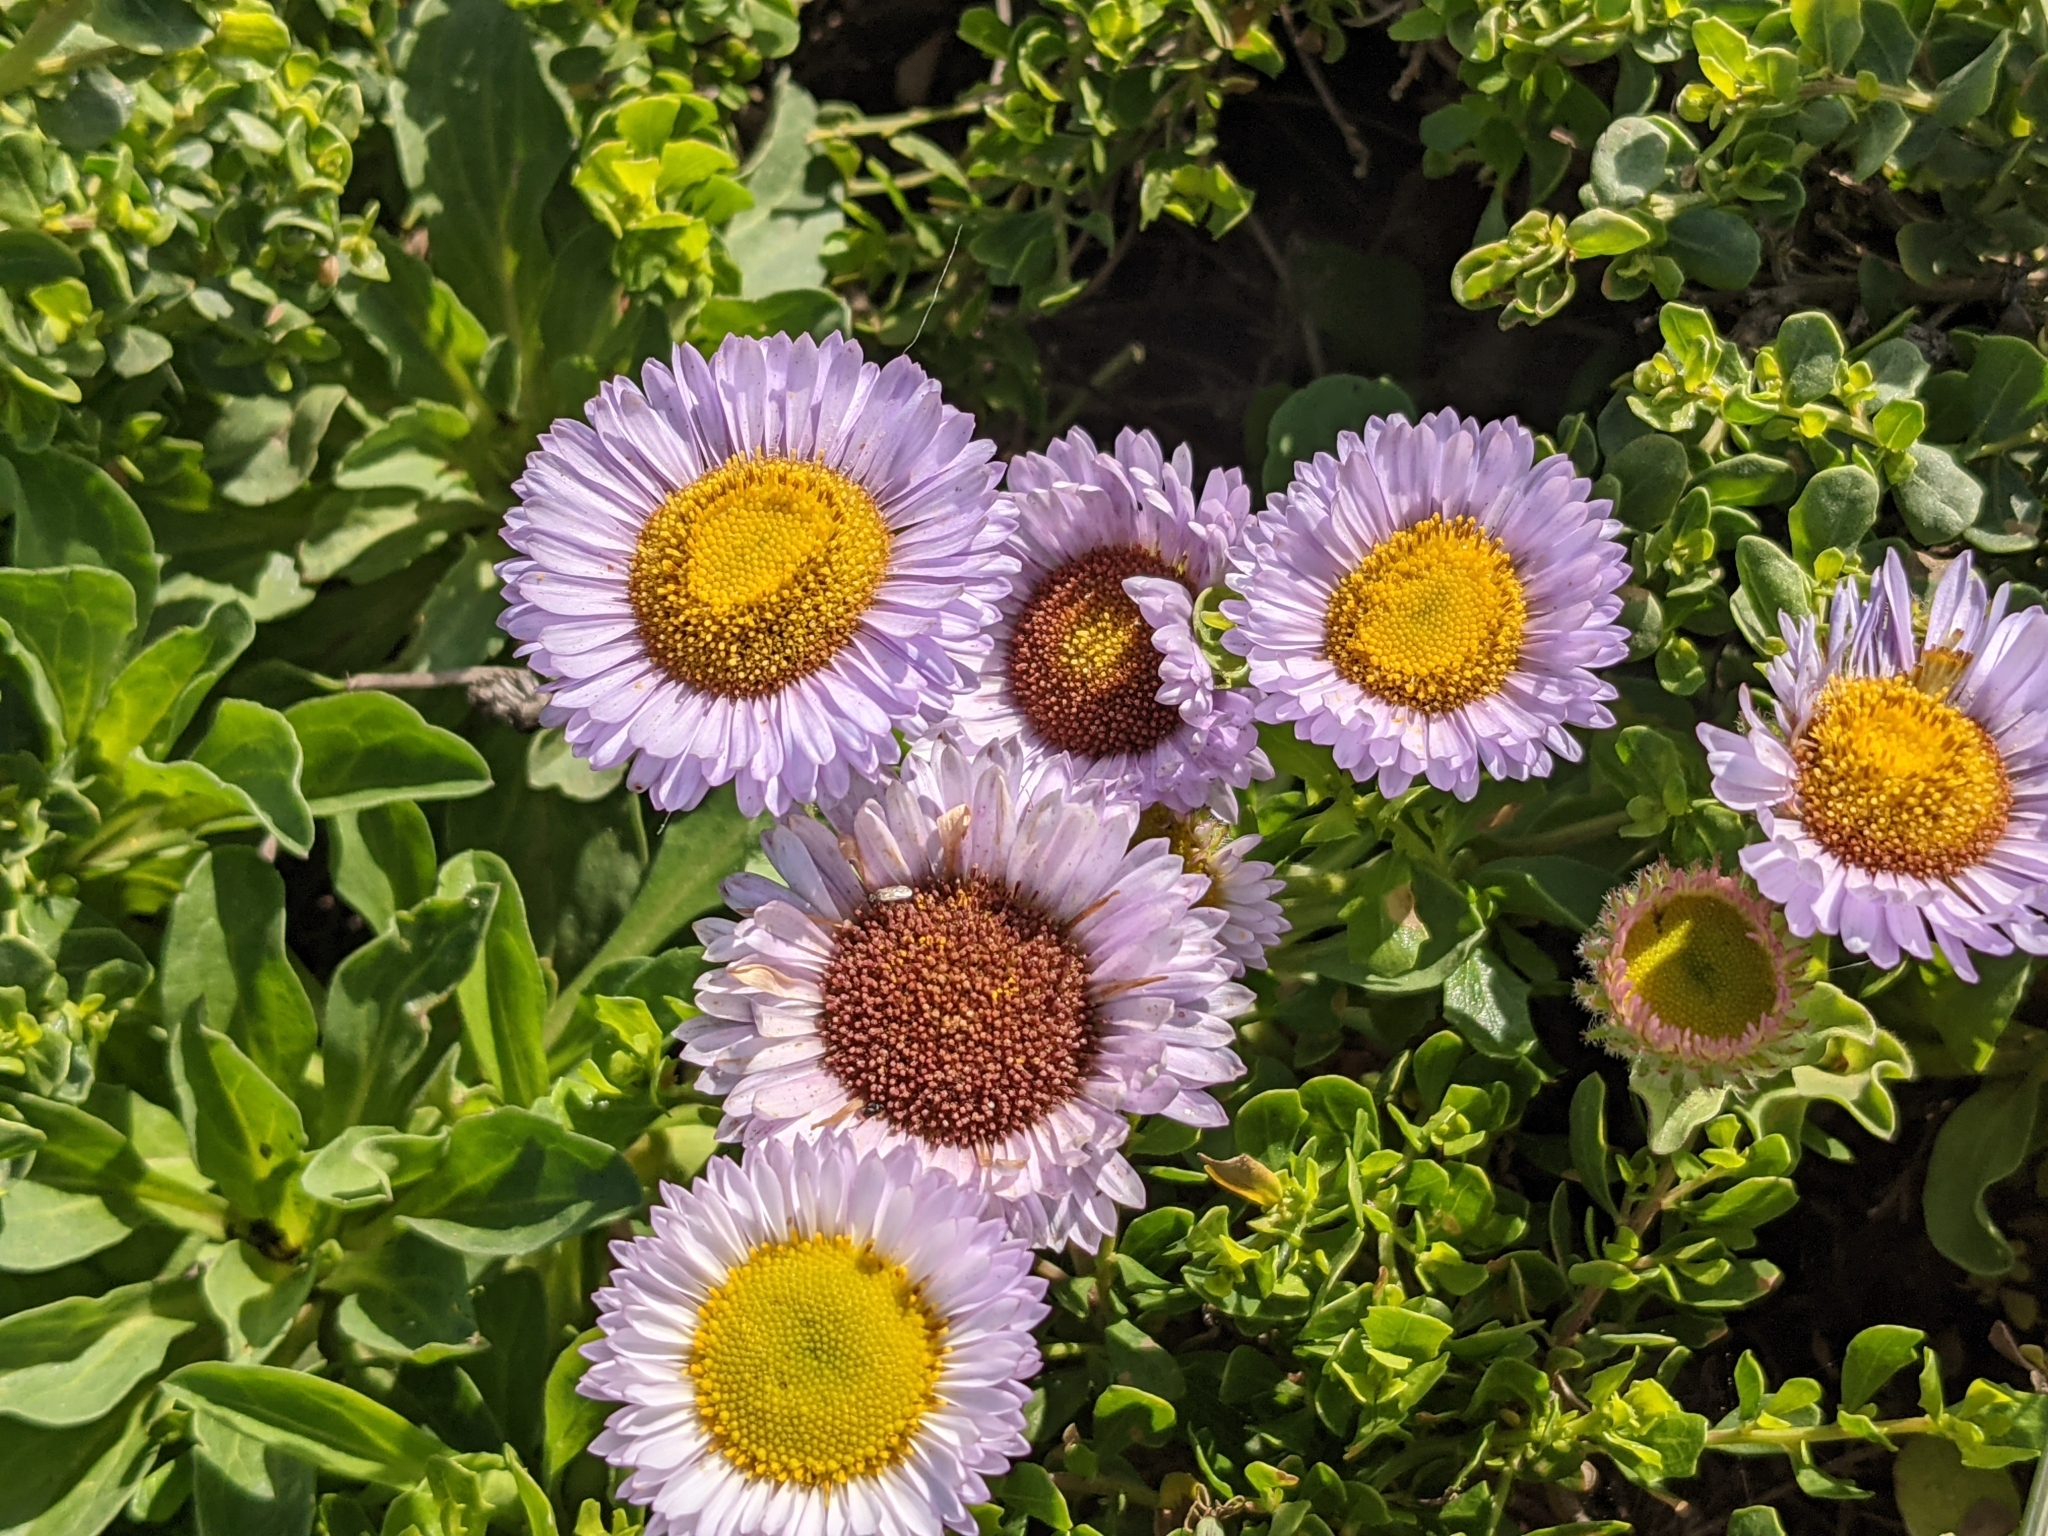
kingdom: Plantae
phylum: Tracheophyta
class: Magnoliopsida
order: Asterales
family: Asteraceae
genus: Erigeron
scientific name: Erigeron glaucus
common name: Seaside daisy
